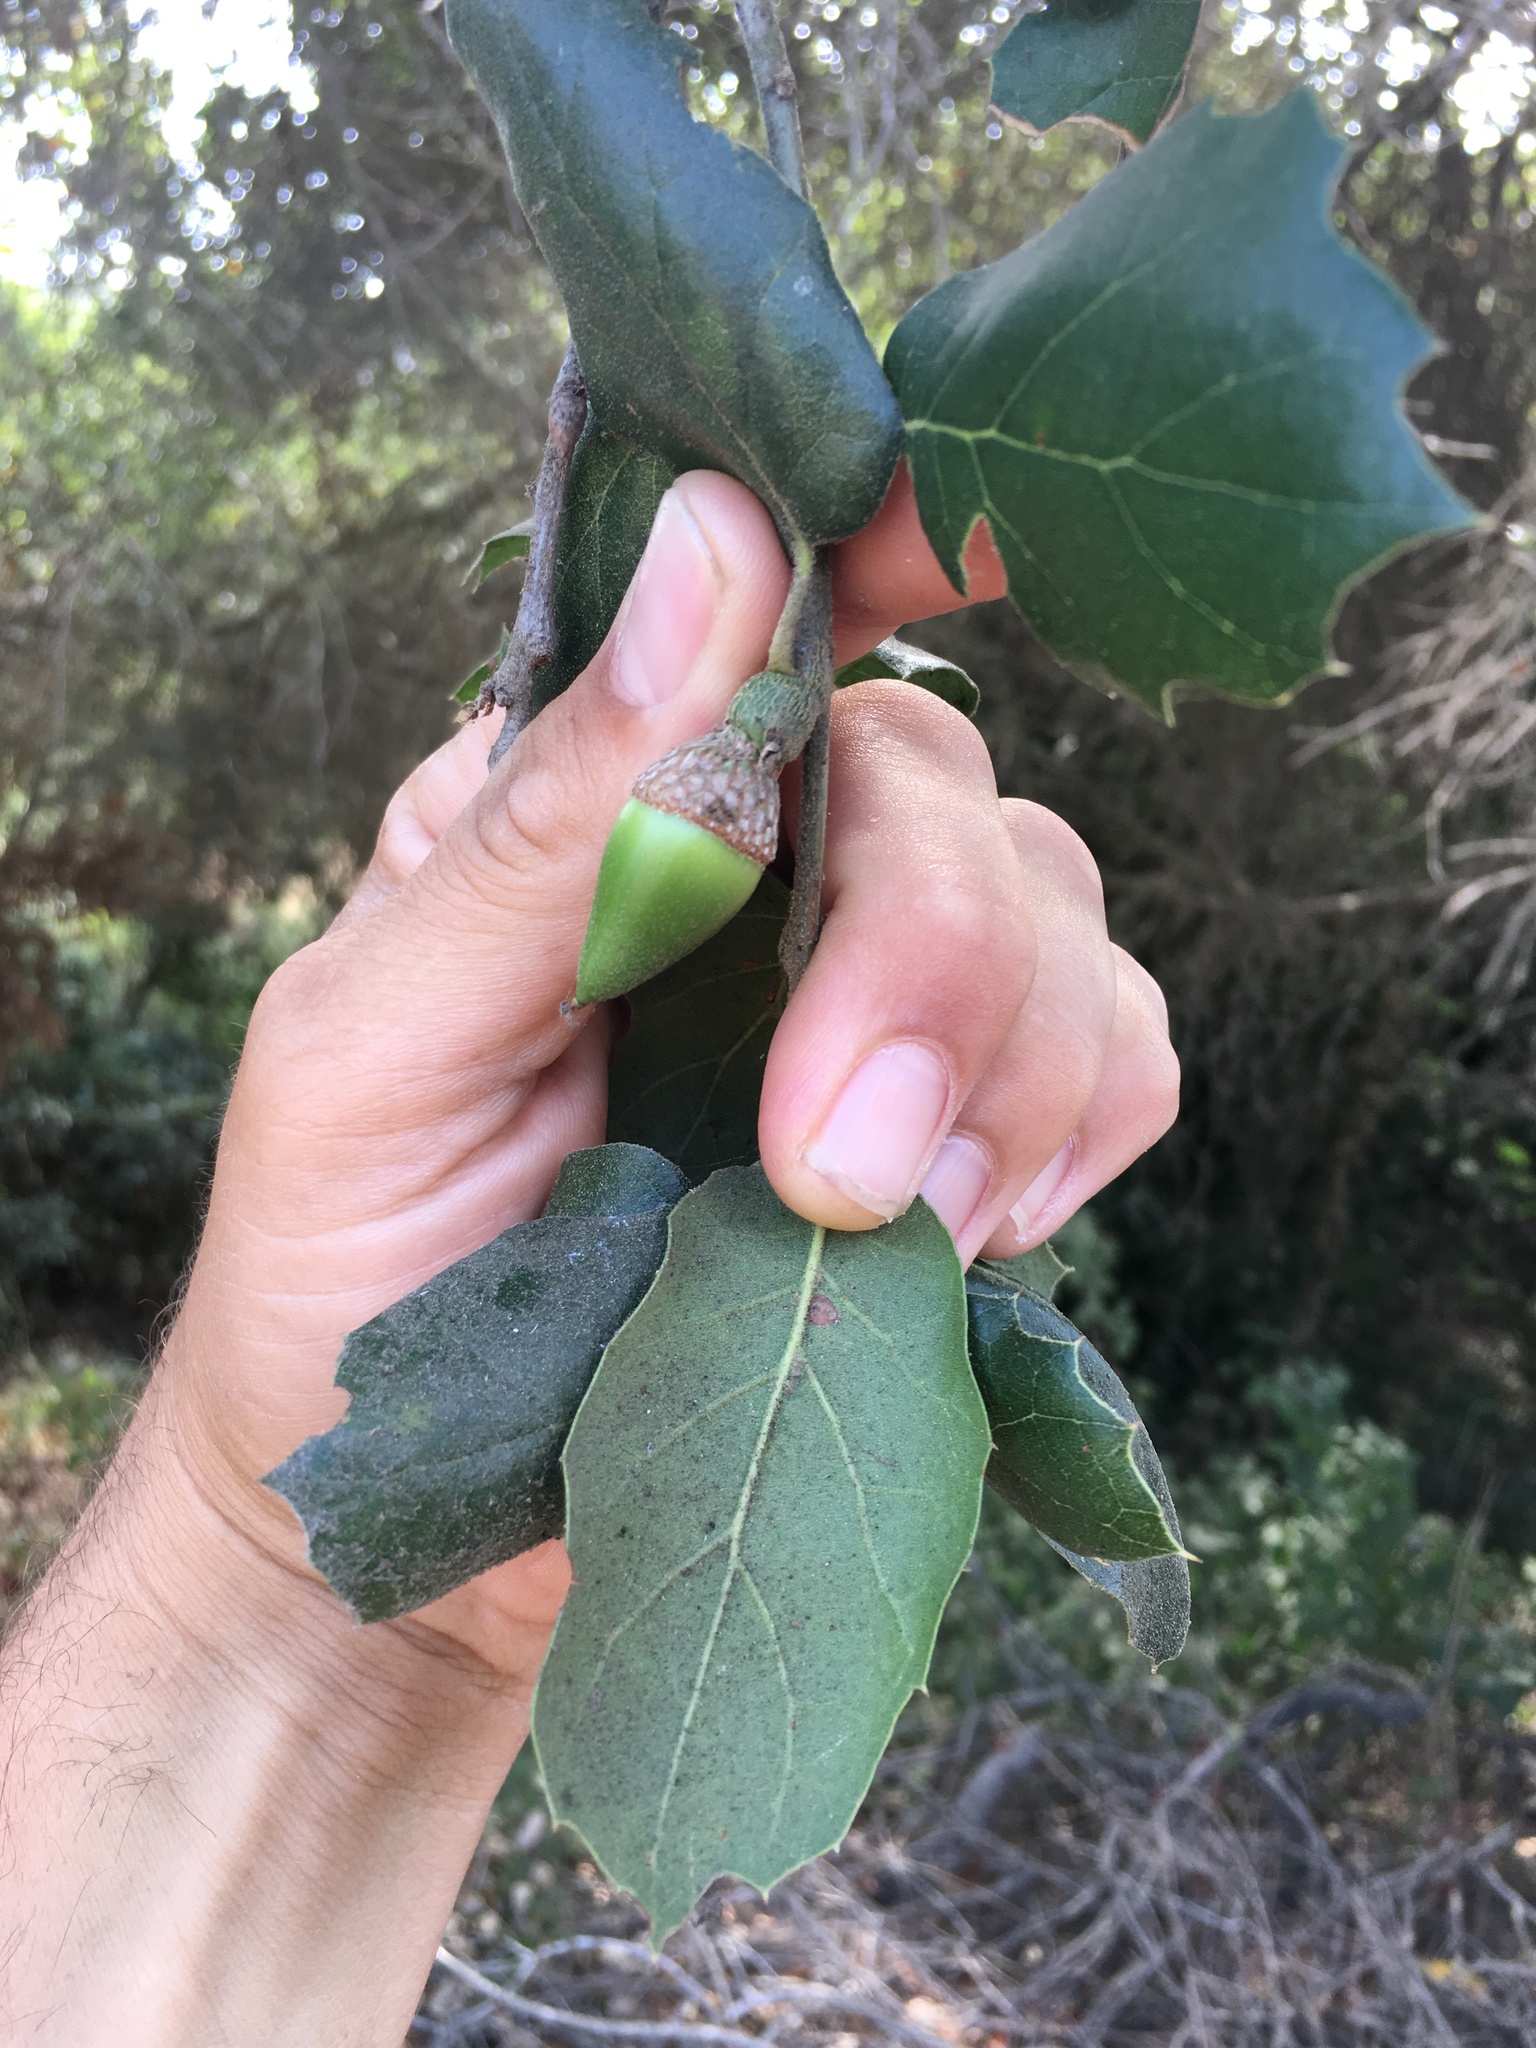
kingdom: Plantae
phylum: Tracheophyta
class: Magnoliopsida
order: Fagales
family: Fagaceae
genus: Quercus
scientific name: Quercus agrifolia
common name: California live oak
